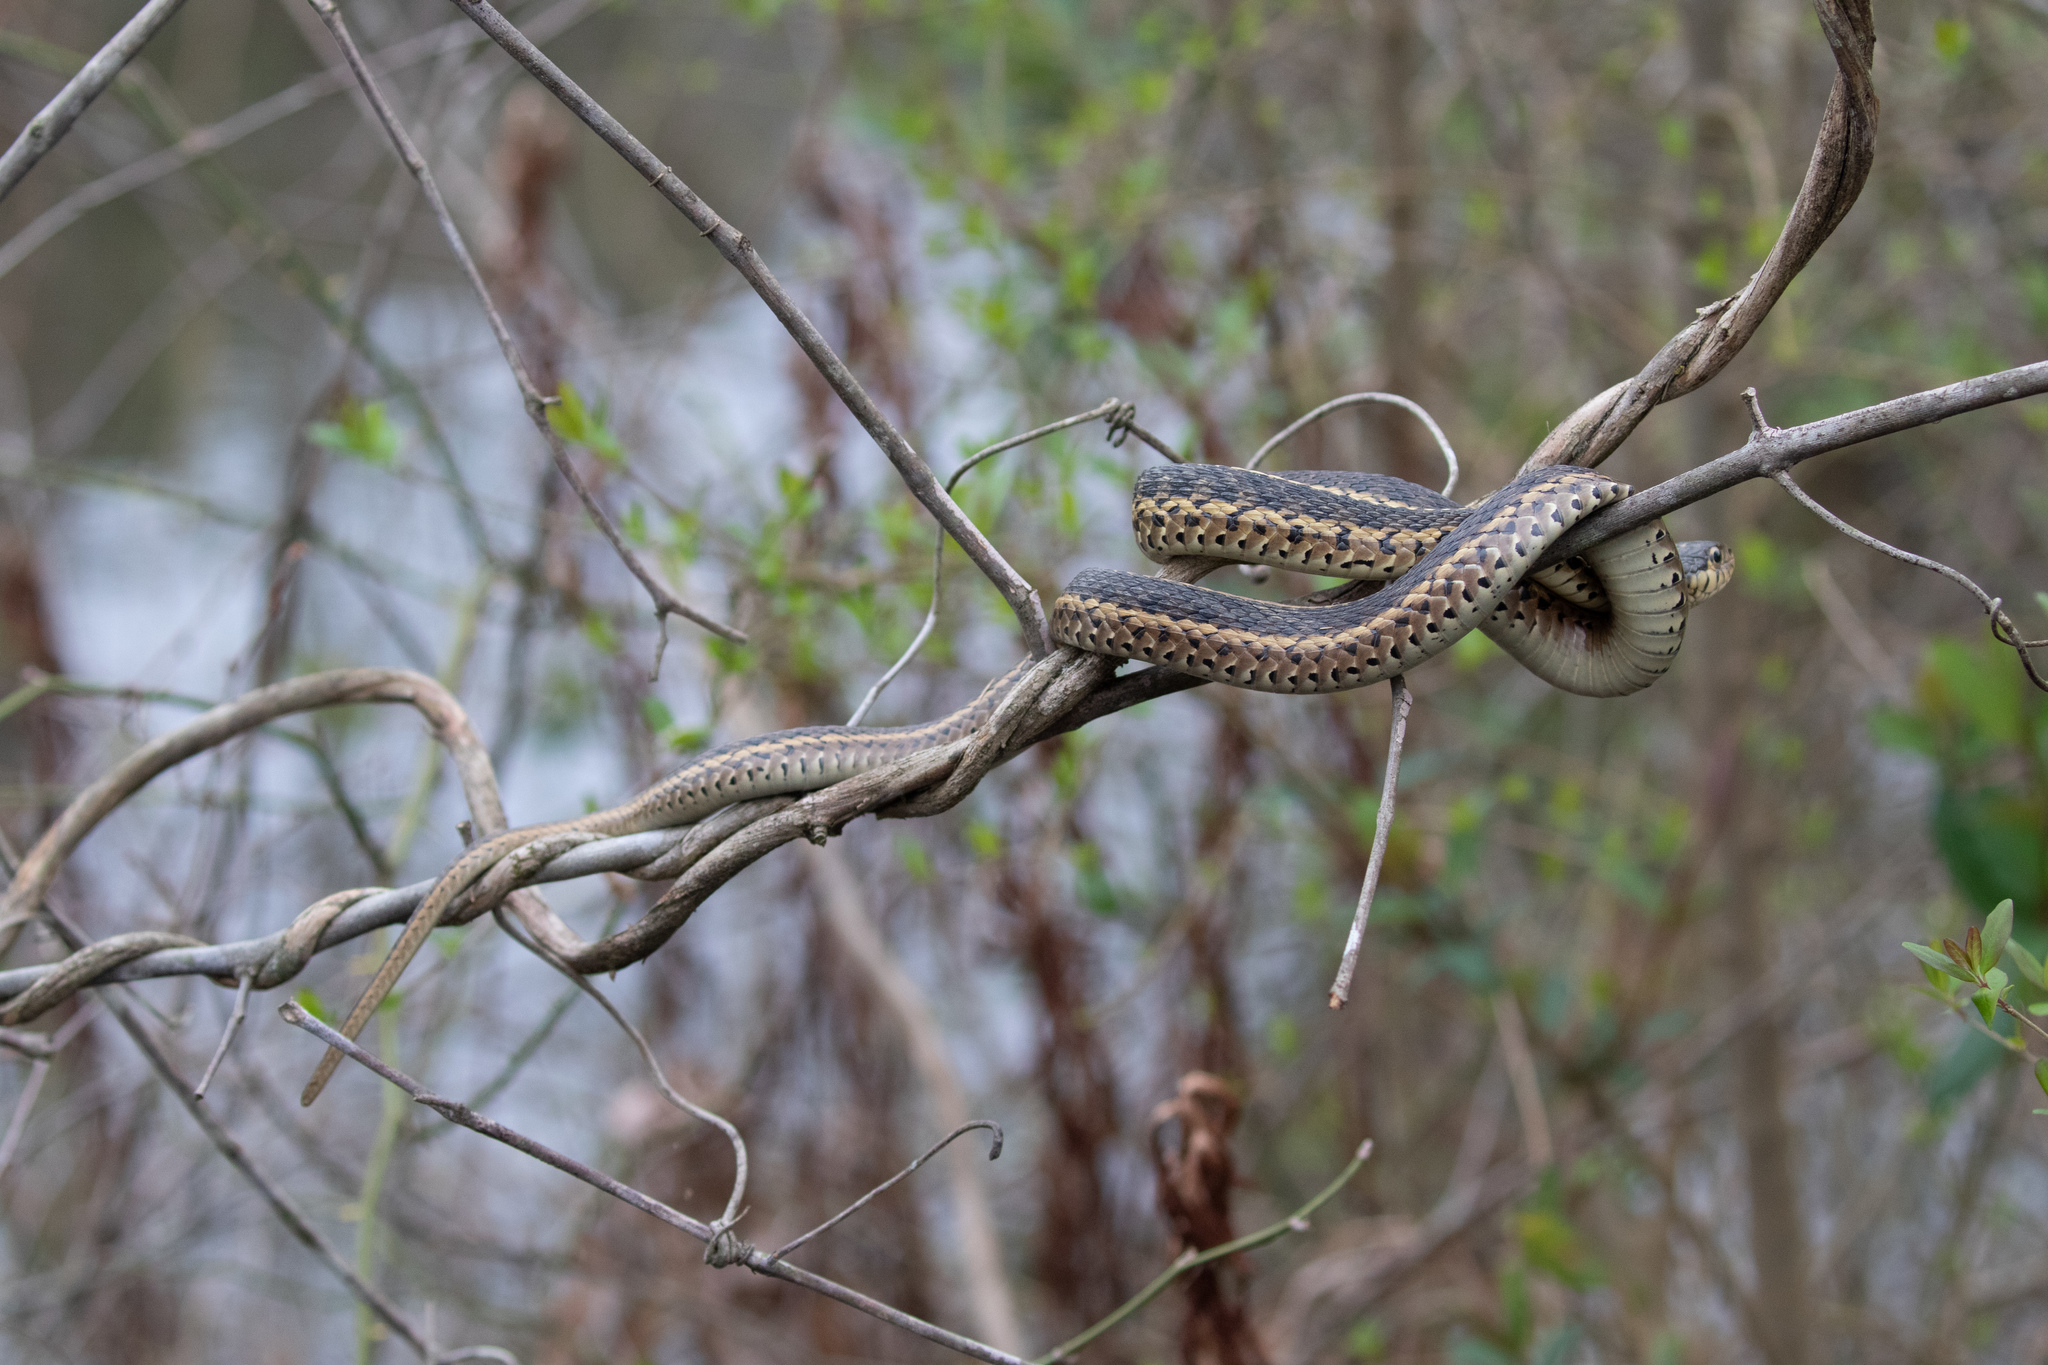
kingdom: Animalia
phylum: Chordata
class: Squamata
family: Colubridae
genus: Thamnophis
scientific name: Thamnophis sirtalis
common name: Common garter snake
